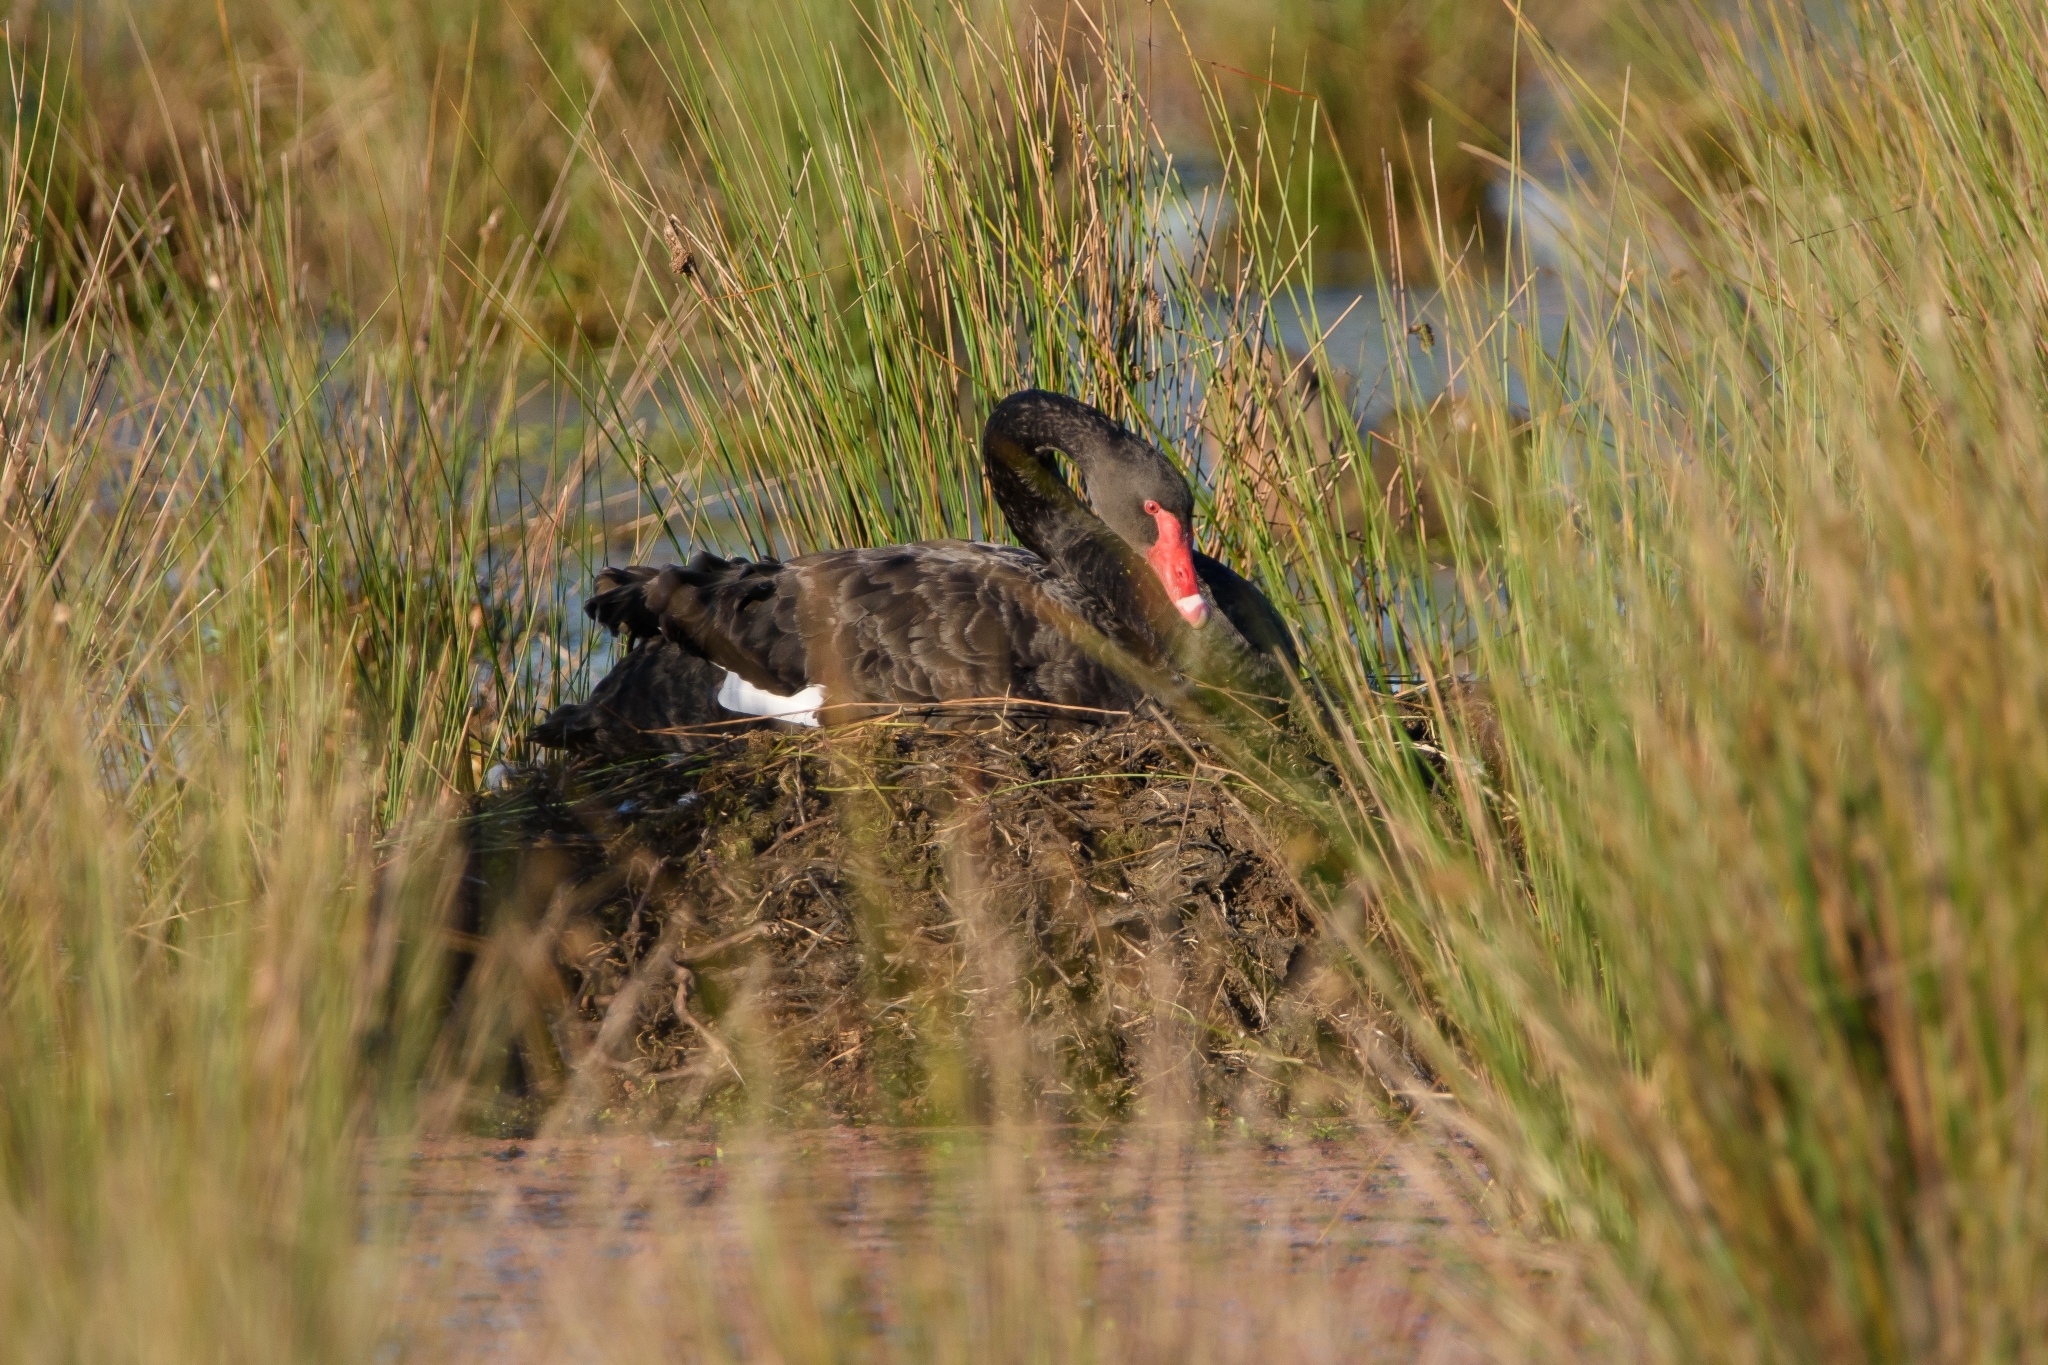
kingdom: Animalia
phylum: Chordata
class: Aves
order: Anseriformes
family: Anatidae
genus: Cygnus
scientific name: Cygnus atratus
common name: Black swan
